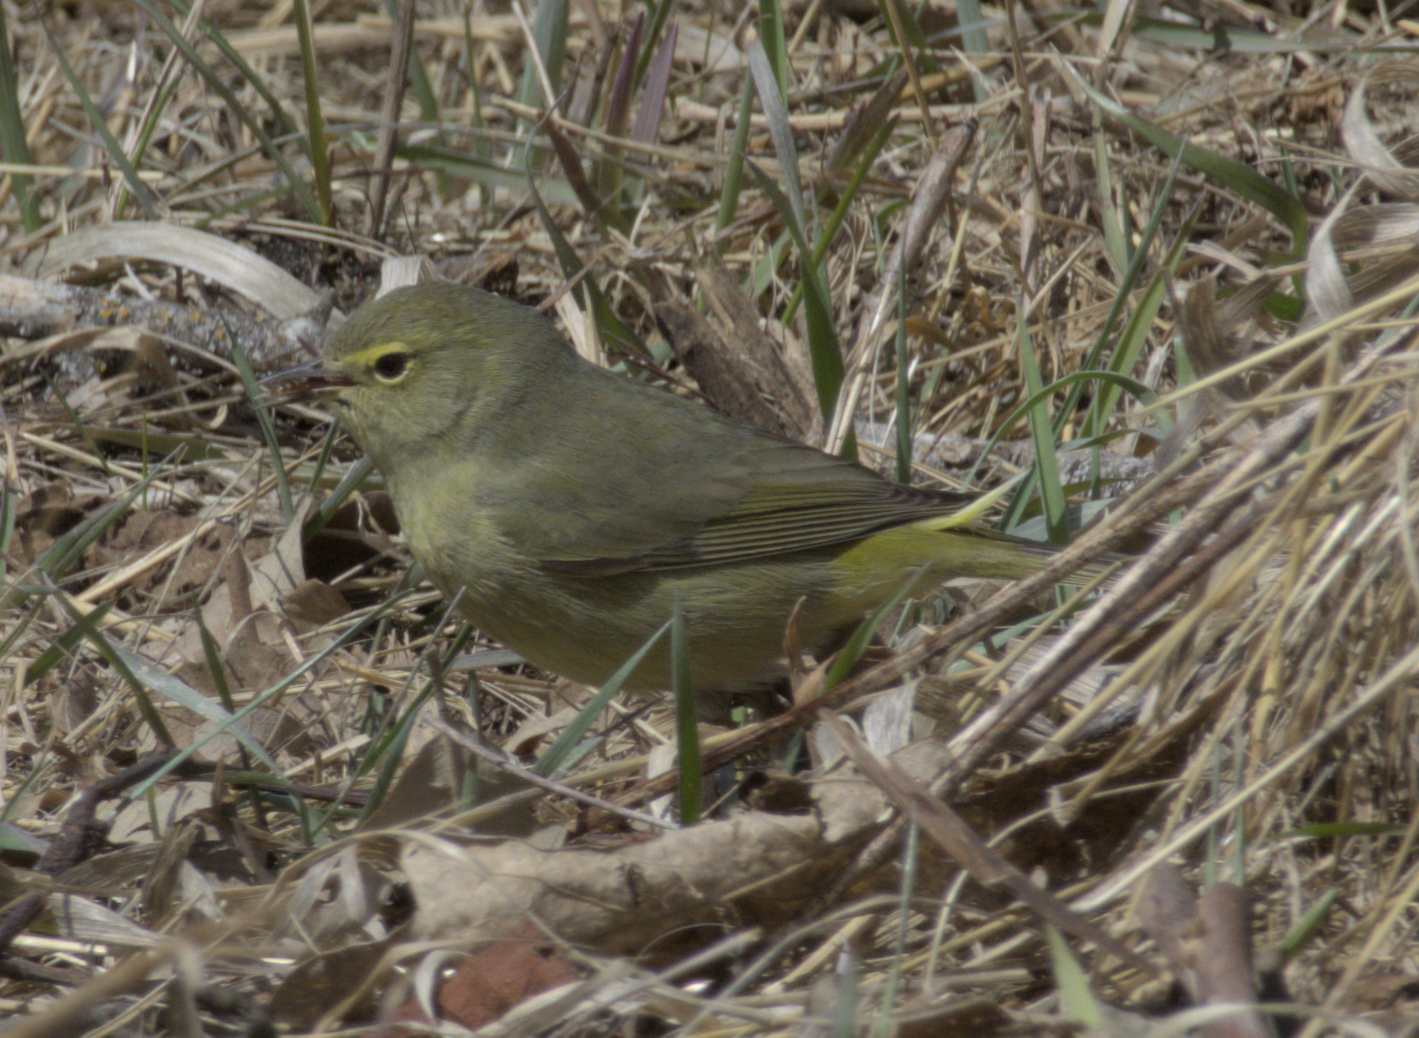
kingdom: Animalia
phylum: Chordata
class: Aves
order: Passeriformes
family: Parulidae
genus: Leiothlypis
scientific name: Leiothlypis celata
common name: Orange-crowned warbler
